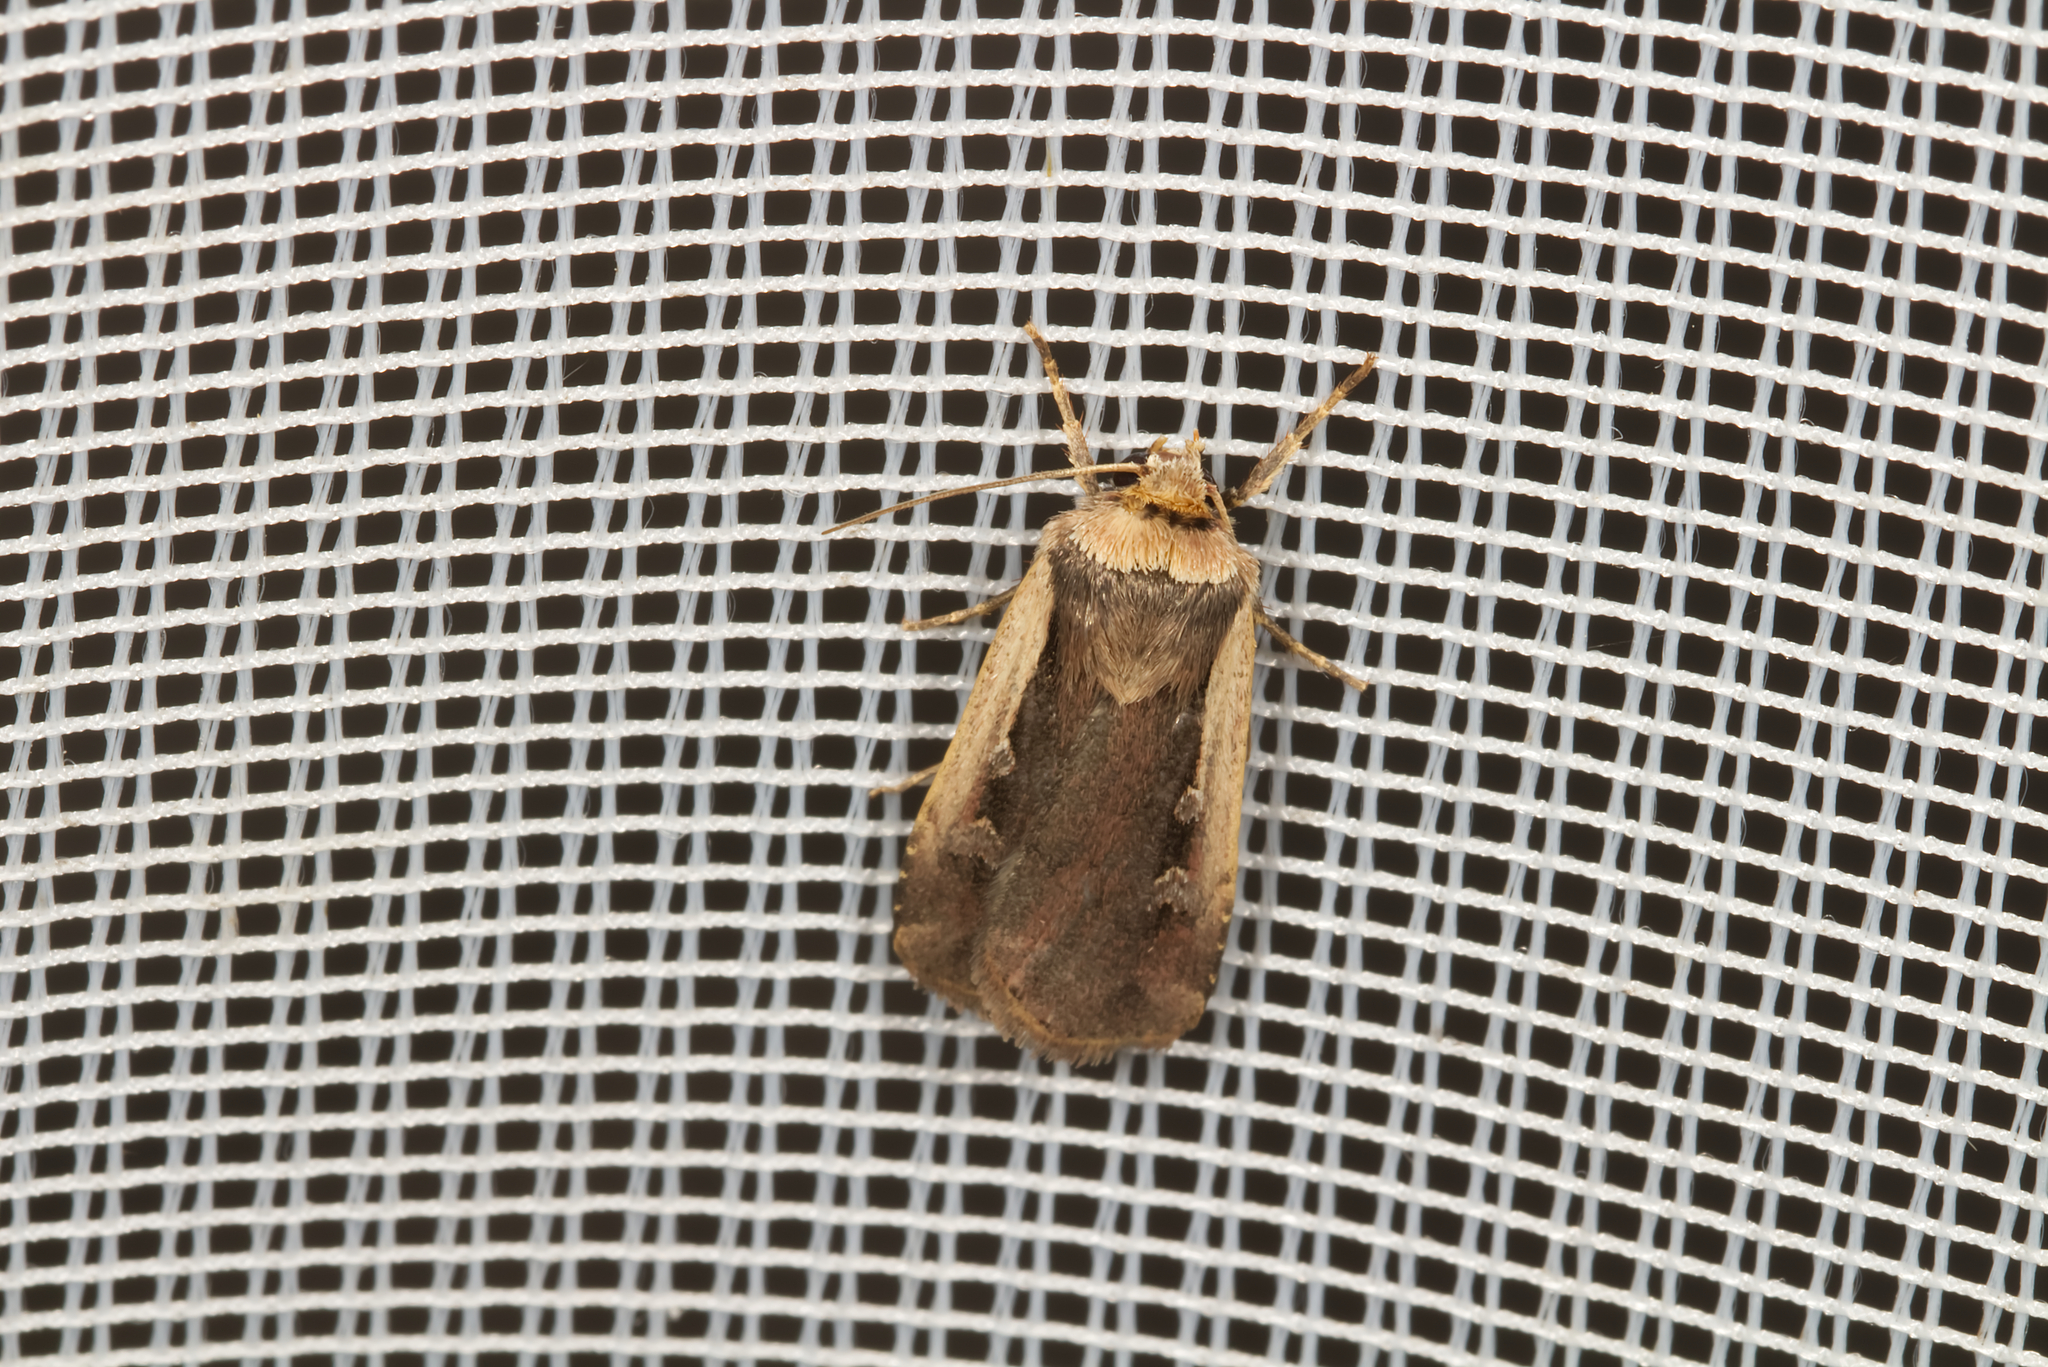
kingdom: Animalia
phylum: Arthropoda
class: Insecta
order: Lepidoptera
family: Noctuidae
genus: Ochropleura
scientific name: Ochropleura plecta
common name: Flame shoulder
